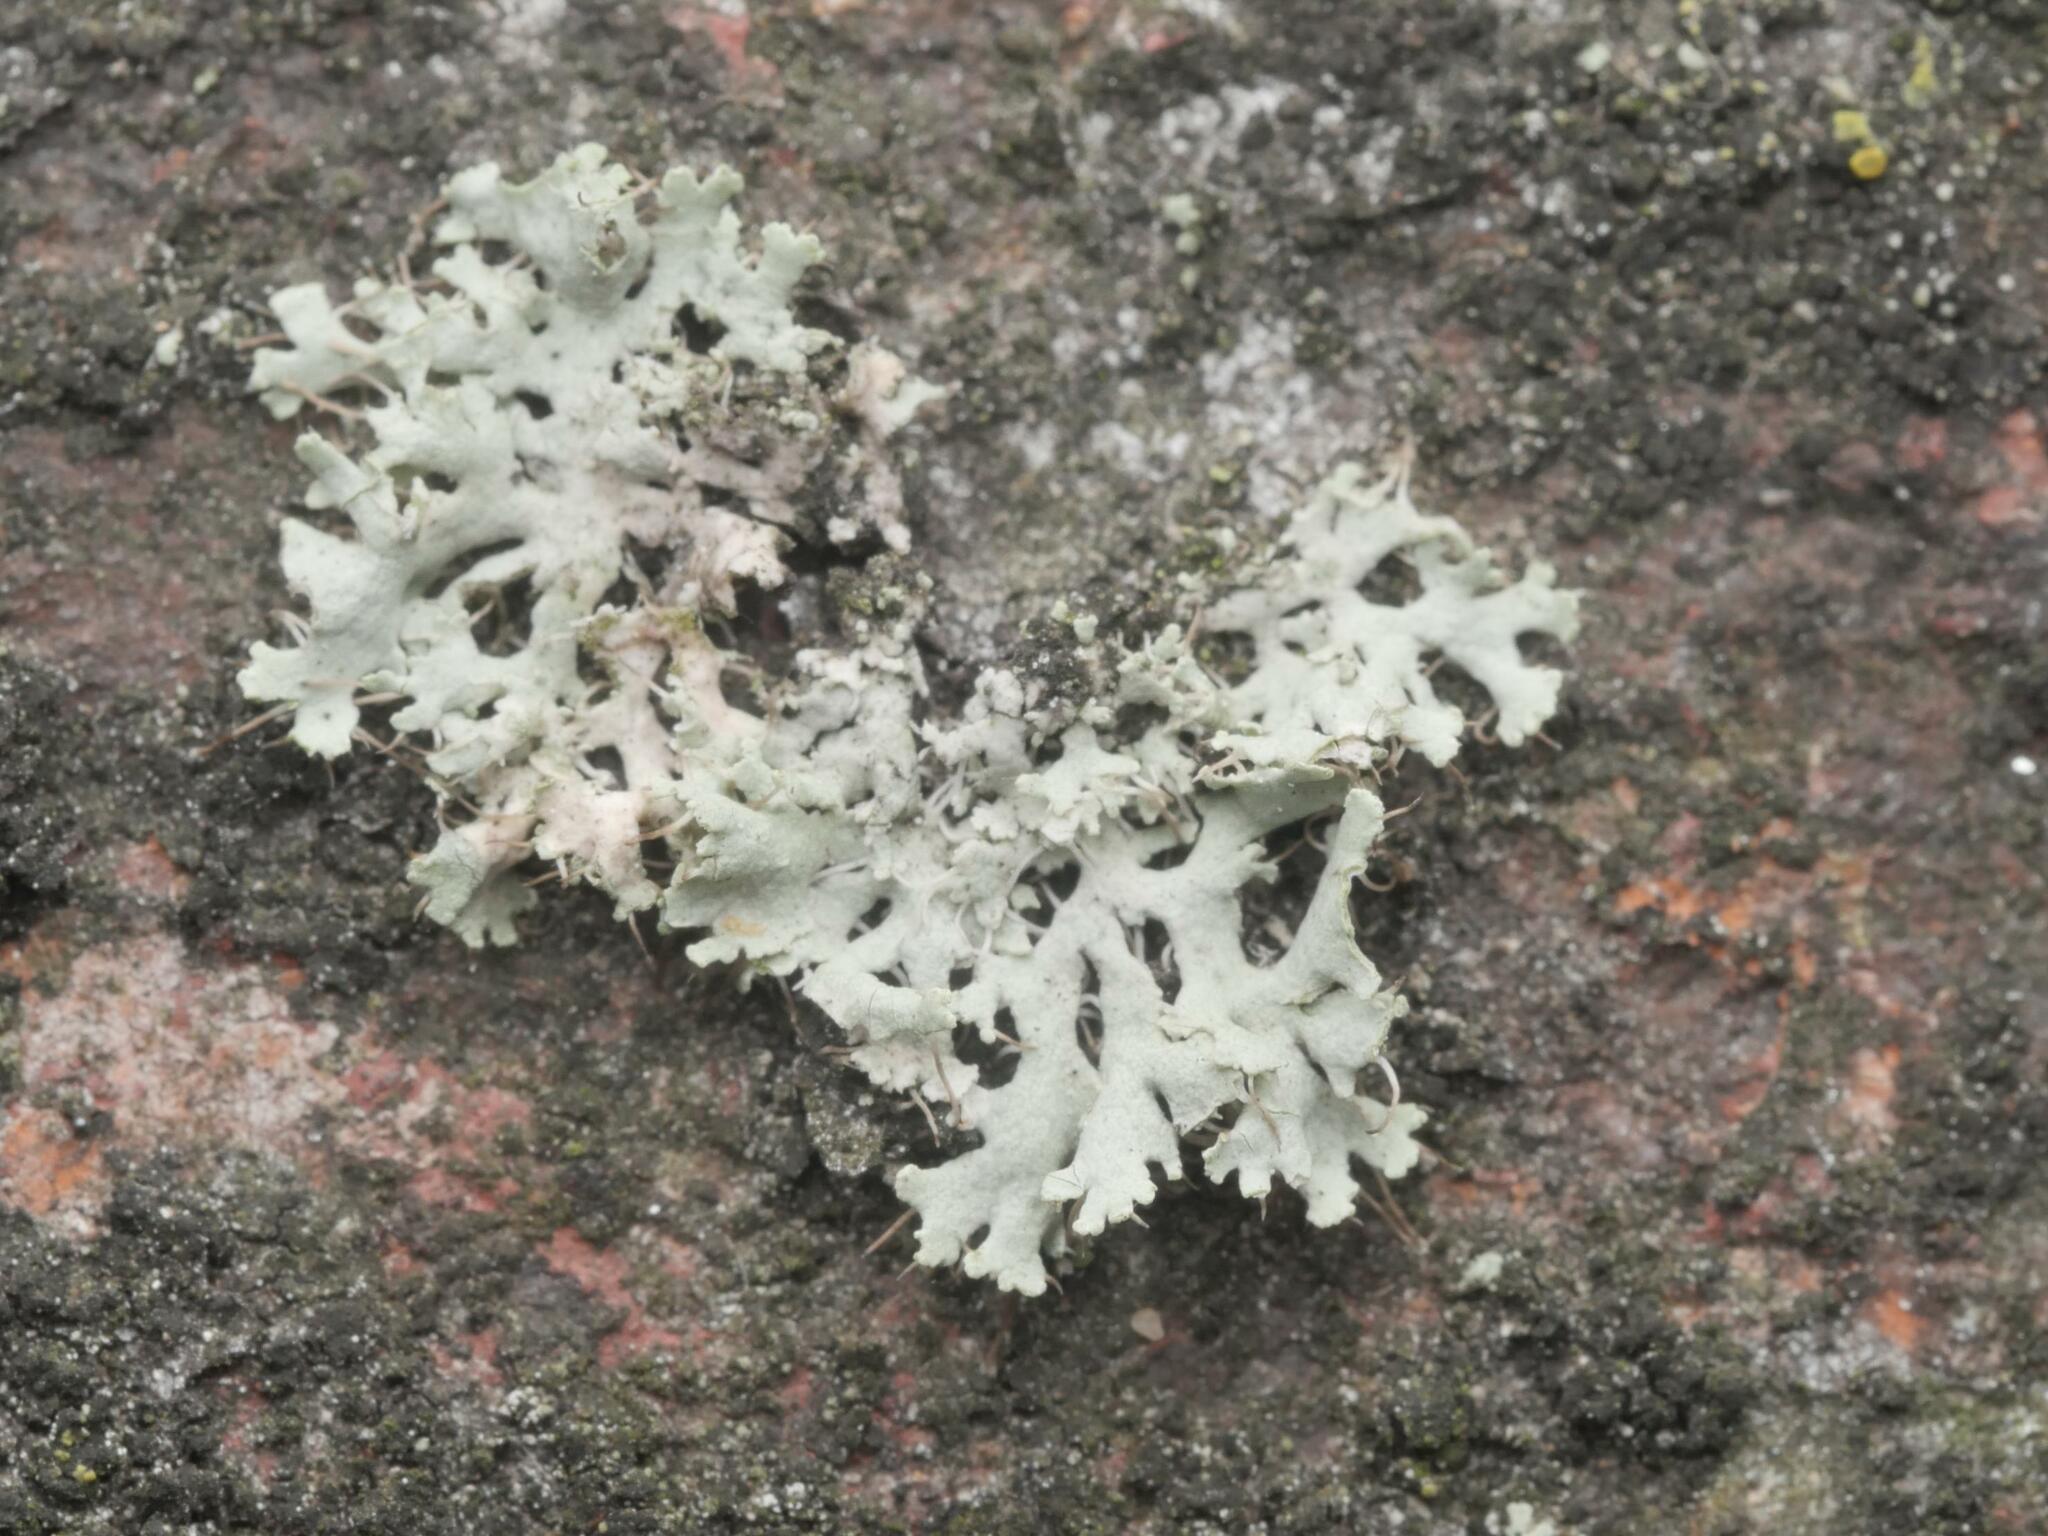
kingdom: Fungi
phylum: Ascomycota
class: Lecanoromycetes
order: Caliciales
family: Physciaceae
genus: Physcia
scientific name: Physcia adscendens
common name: Hooded rosette lichen
